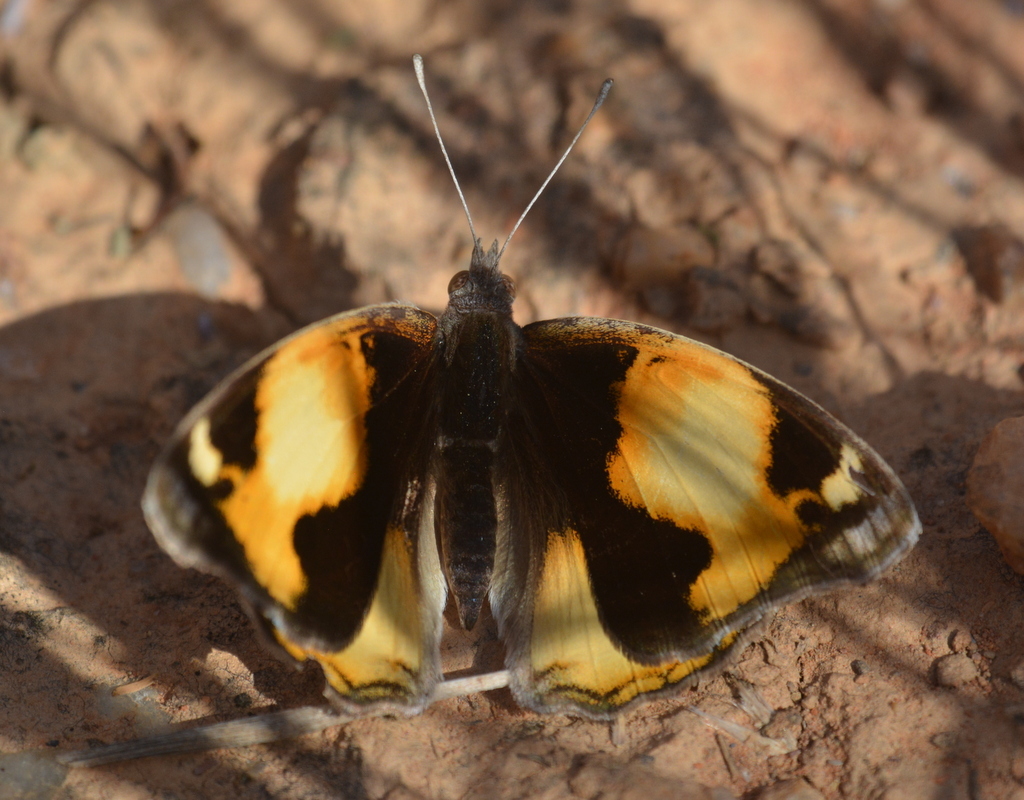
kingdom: Animalia
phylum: Arthropoda
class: Insecta
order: Lepidoptera
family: Nymphalidae
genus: Junonia
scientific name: Junonia hierta
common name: Yellow pansy
